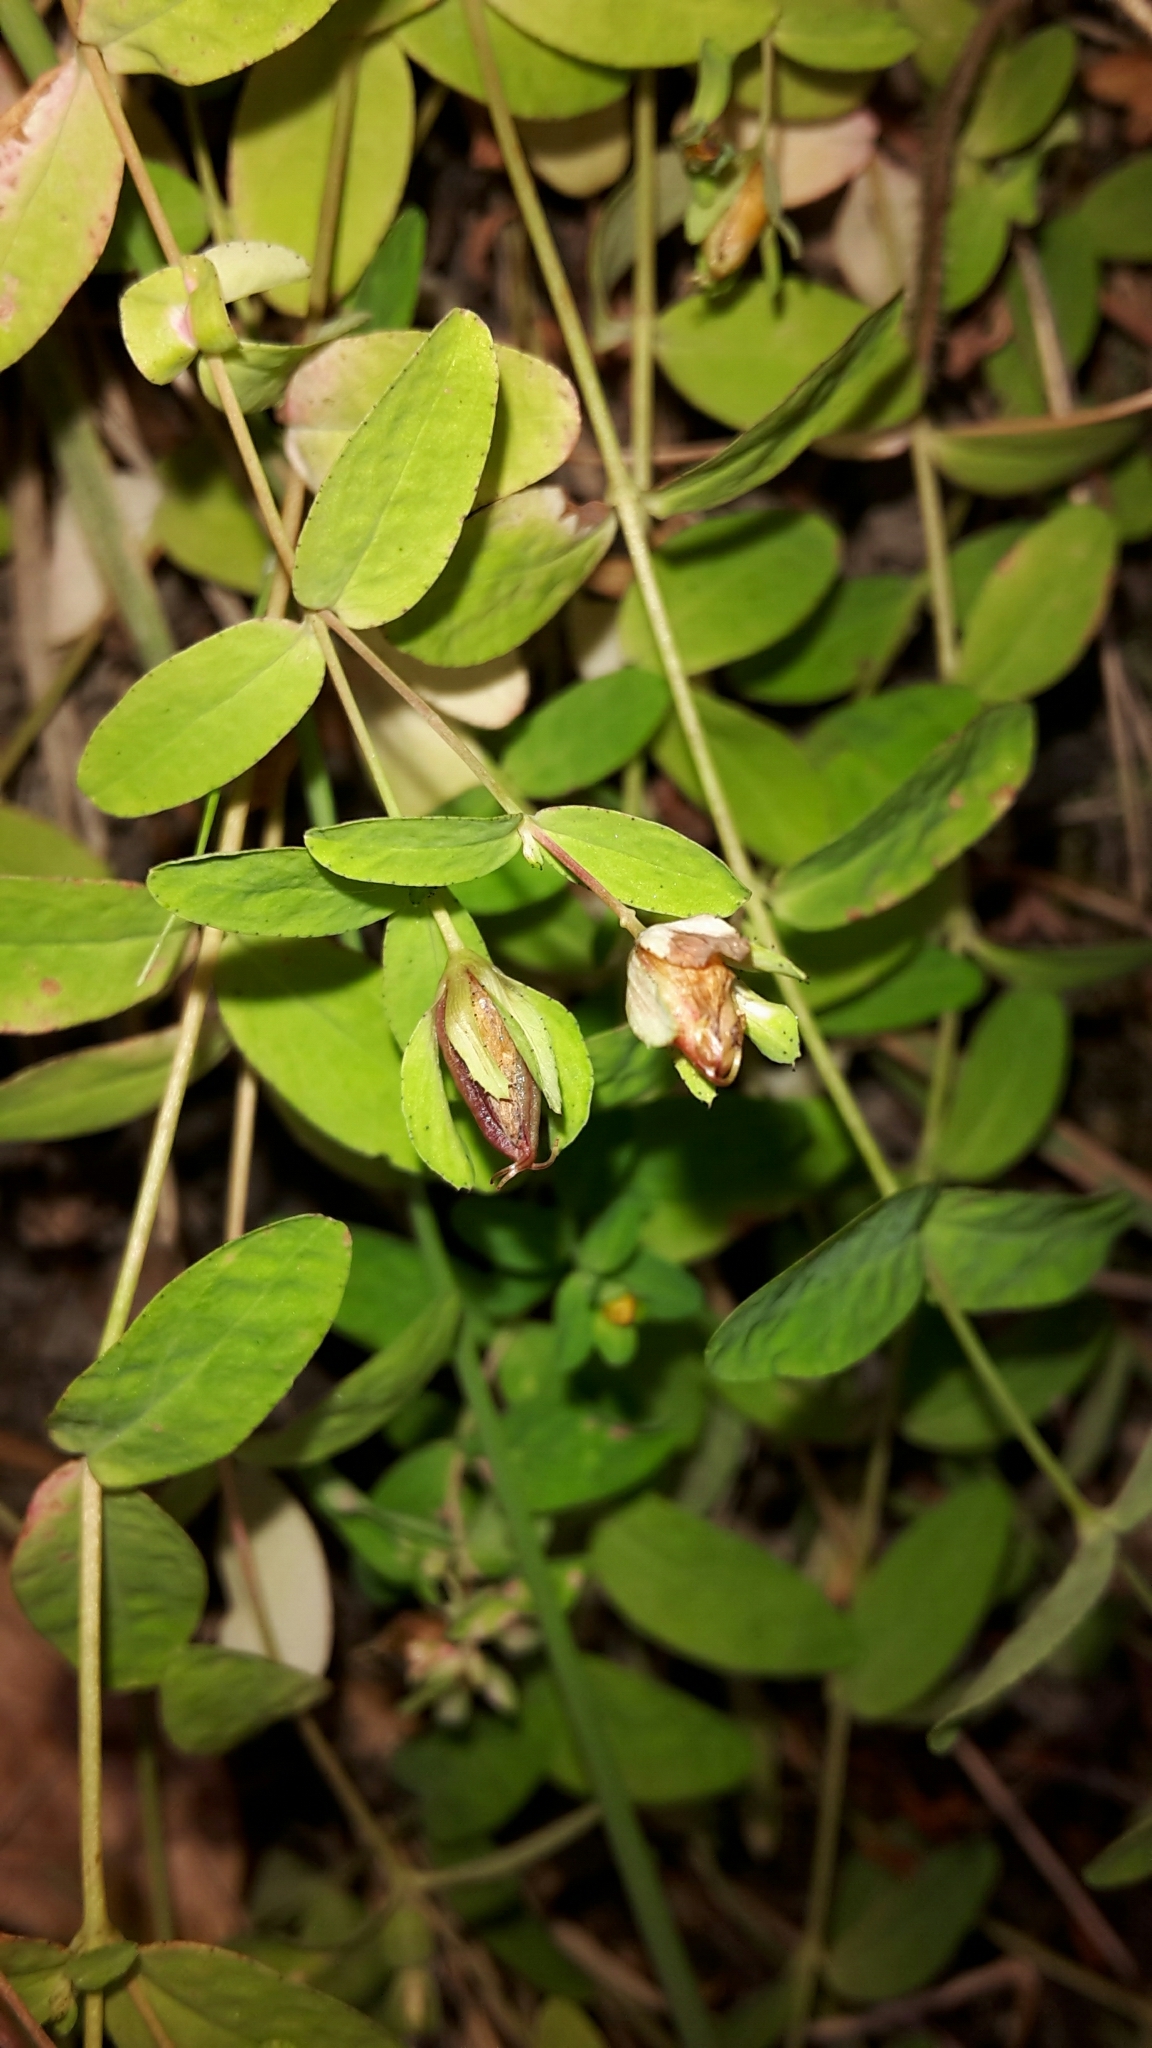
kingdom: Plantae
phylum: Tracheophyta
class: Magnoliopsida
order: Malpighiales
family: Hypericaceae
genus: Hypericum
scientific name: Hypericum humifusum
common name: Trailing st. john's-wort
